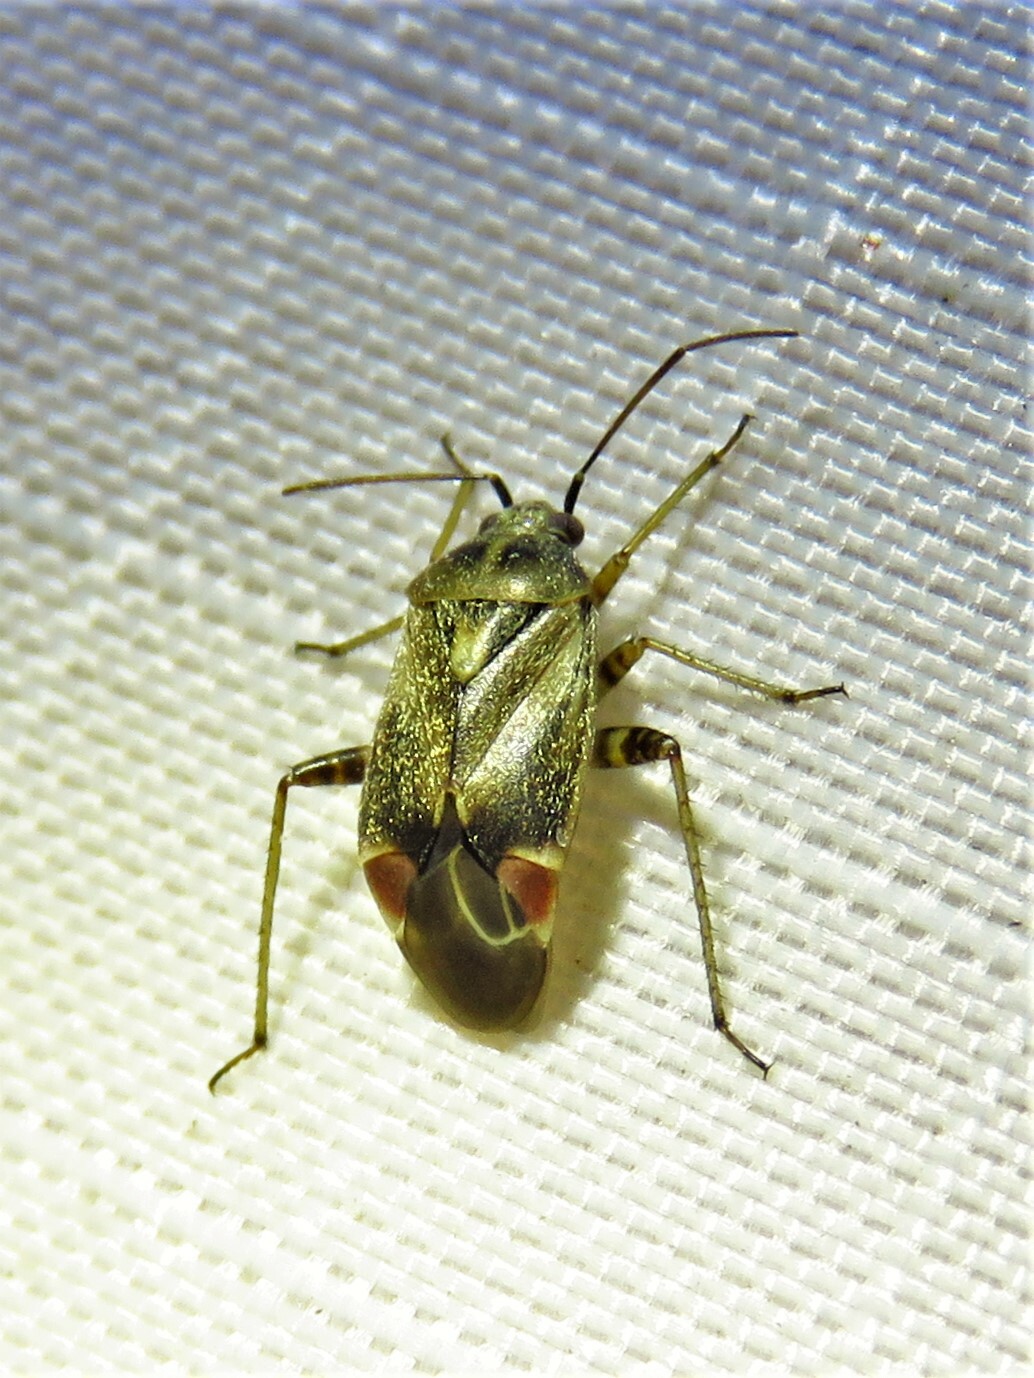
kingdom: Animalia
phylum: Arthropoda
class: Insecta
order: Hemiptera
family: Miridae
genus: Polymerus
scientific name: Polymerus basalis
